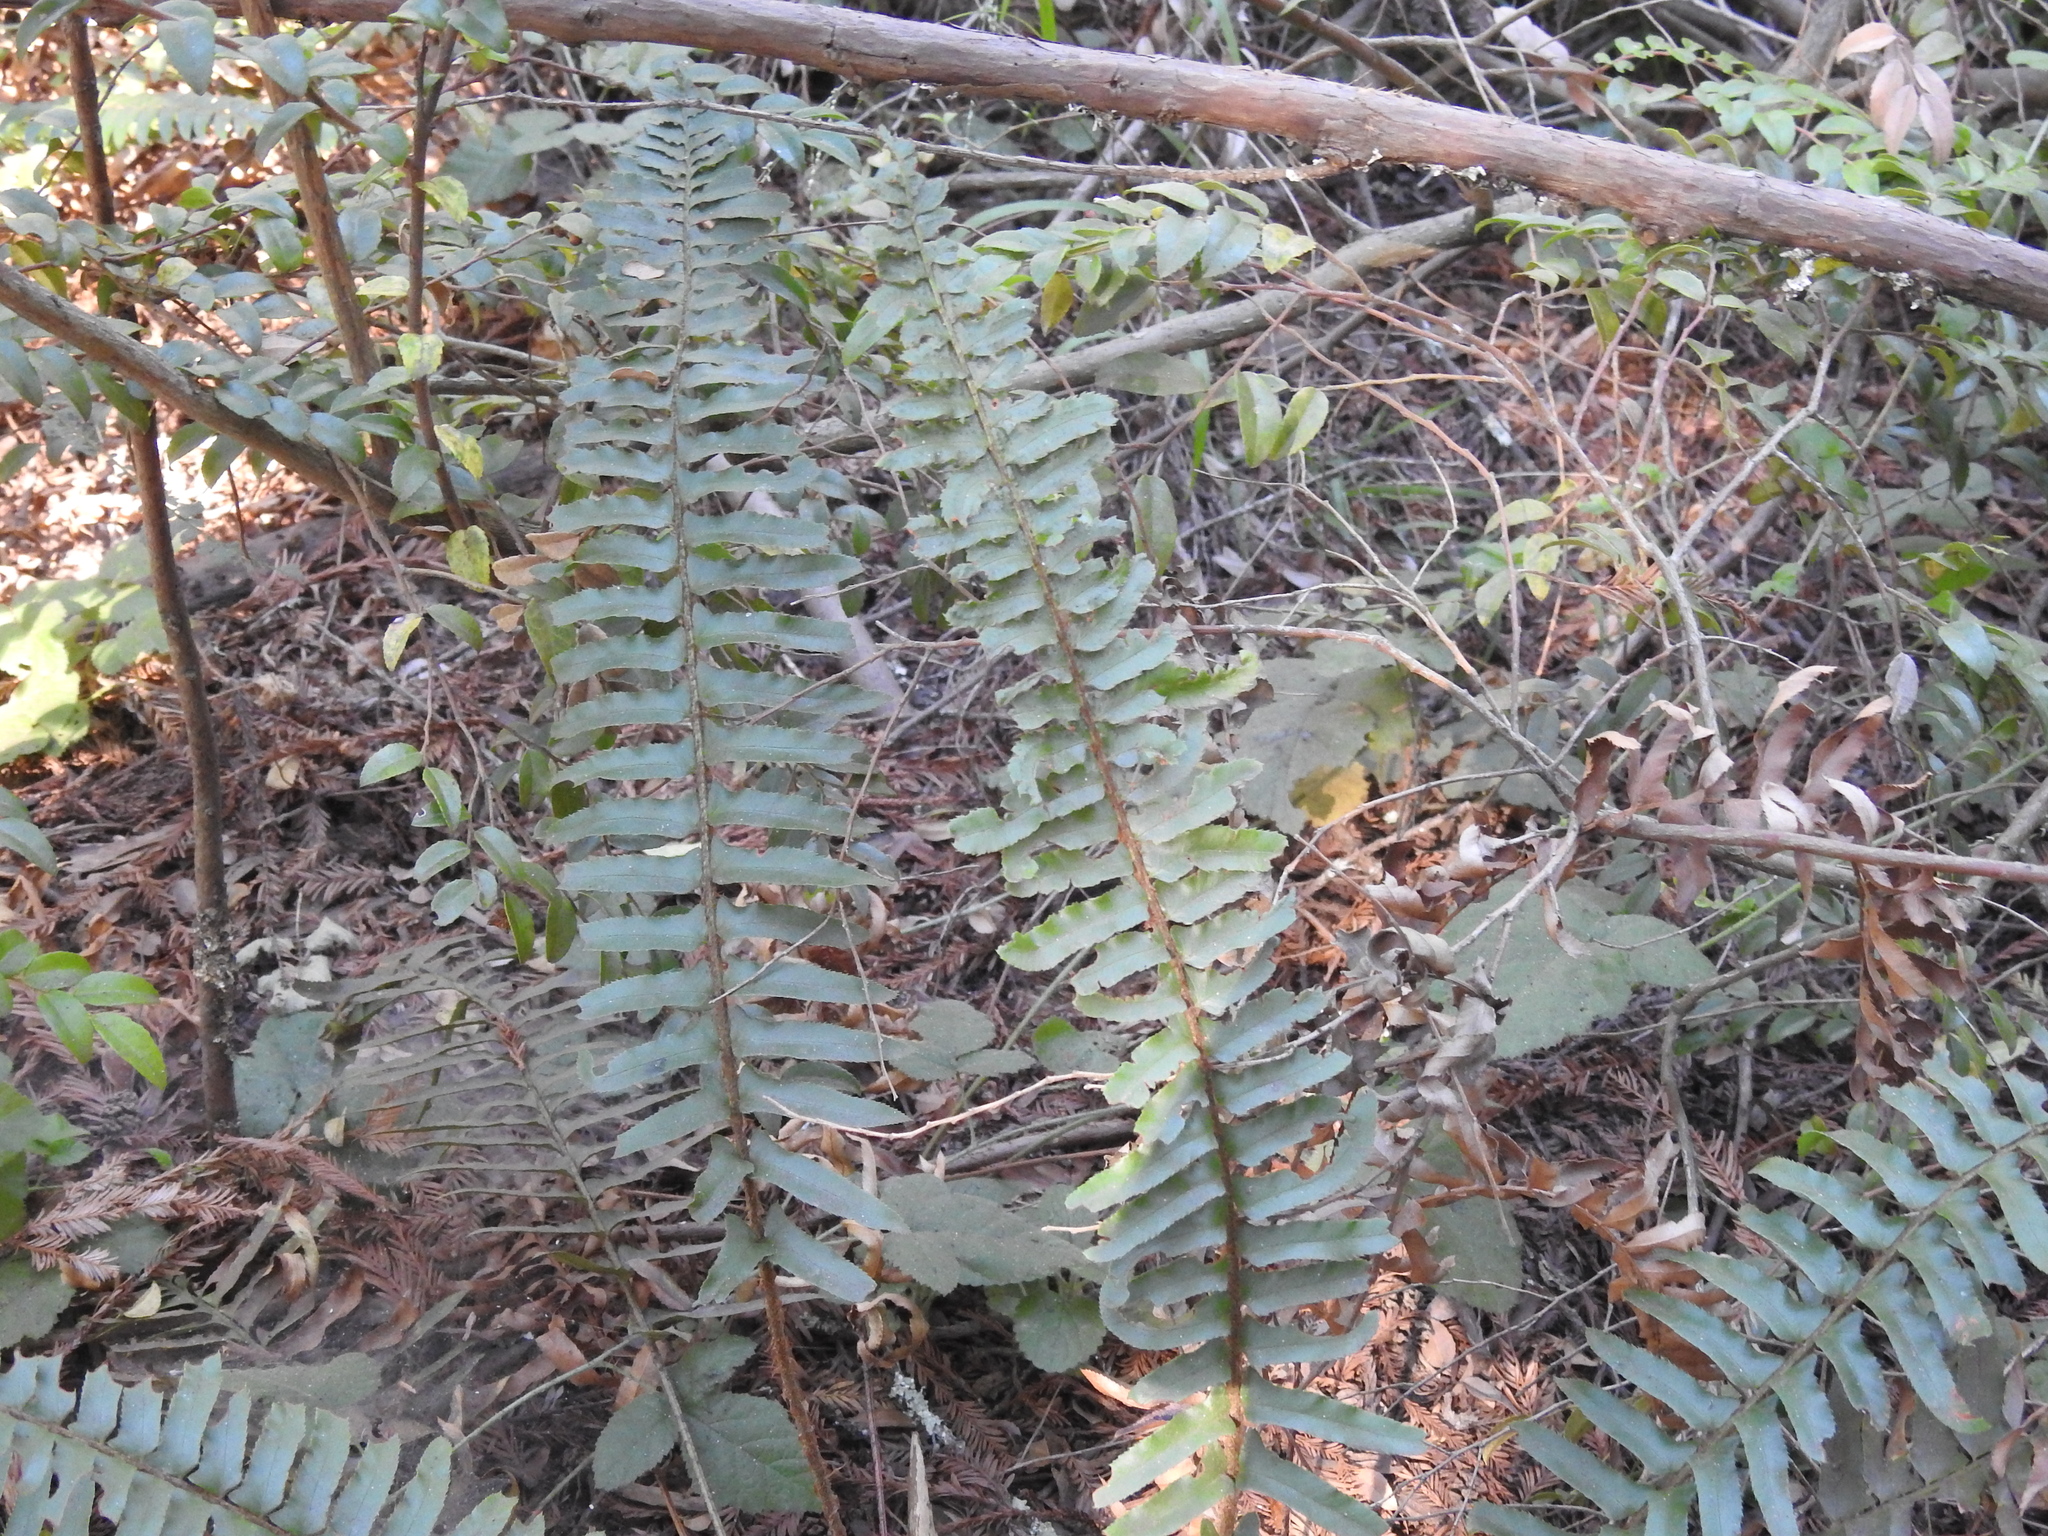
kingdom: Plantae
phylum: Tracheophyta
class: Polypodiopsida
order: Polypodiales
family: Dryopteridaceae
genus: Polystichum
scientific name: Polystichum munitum
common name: Western sword-fern
